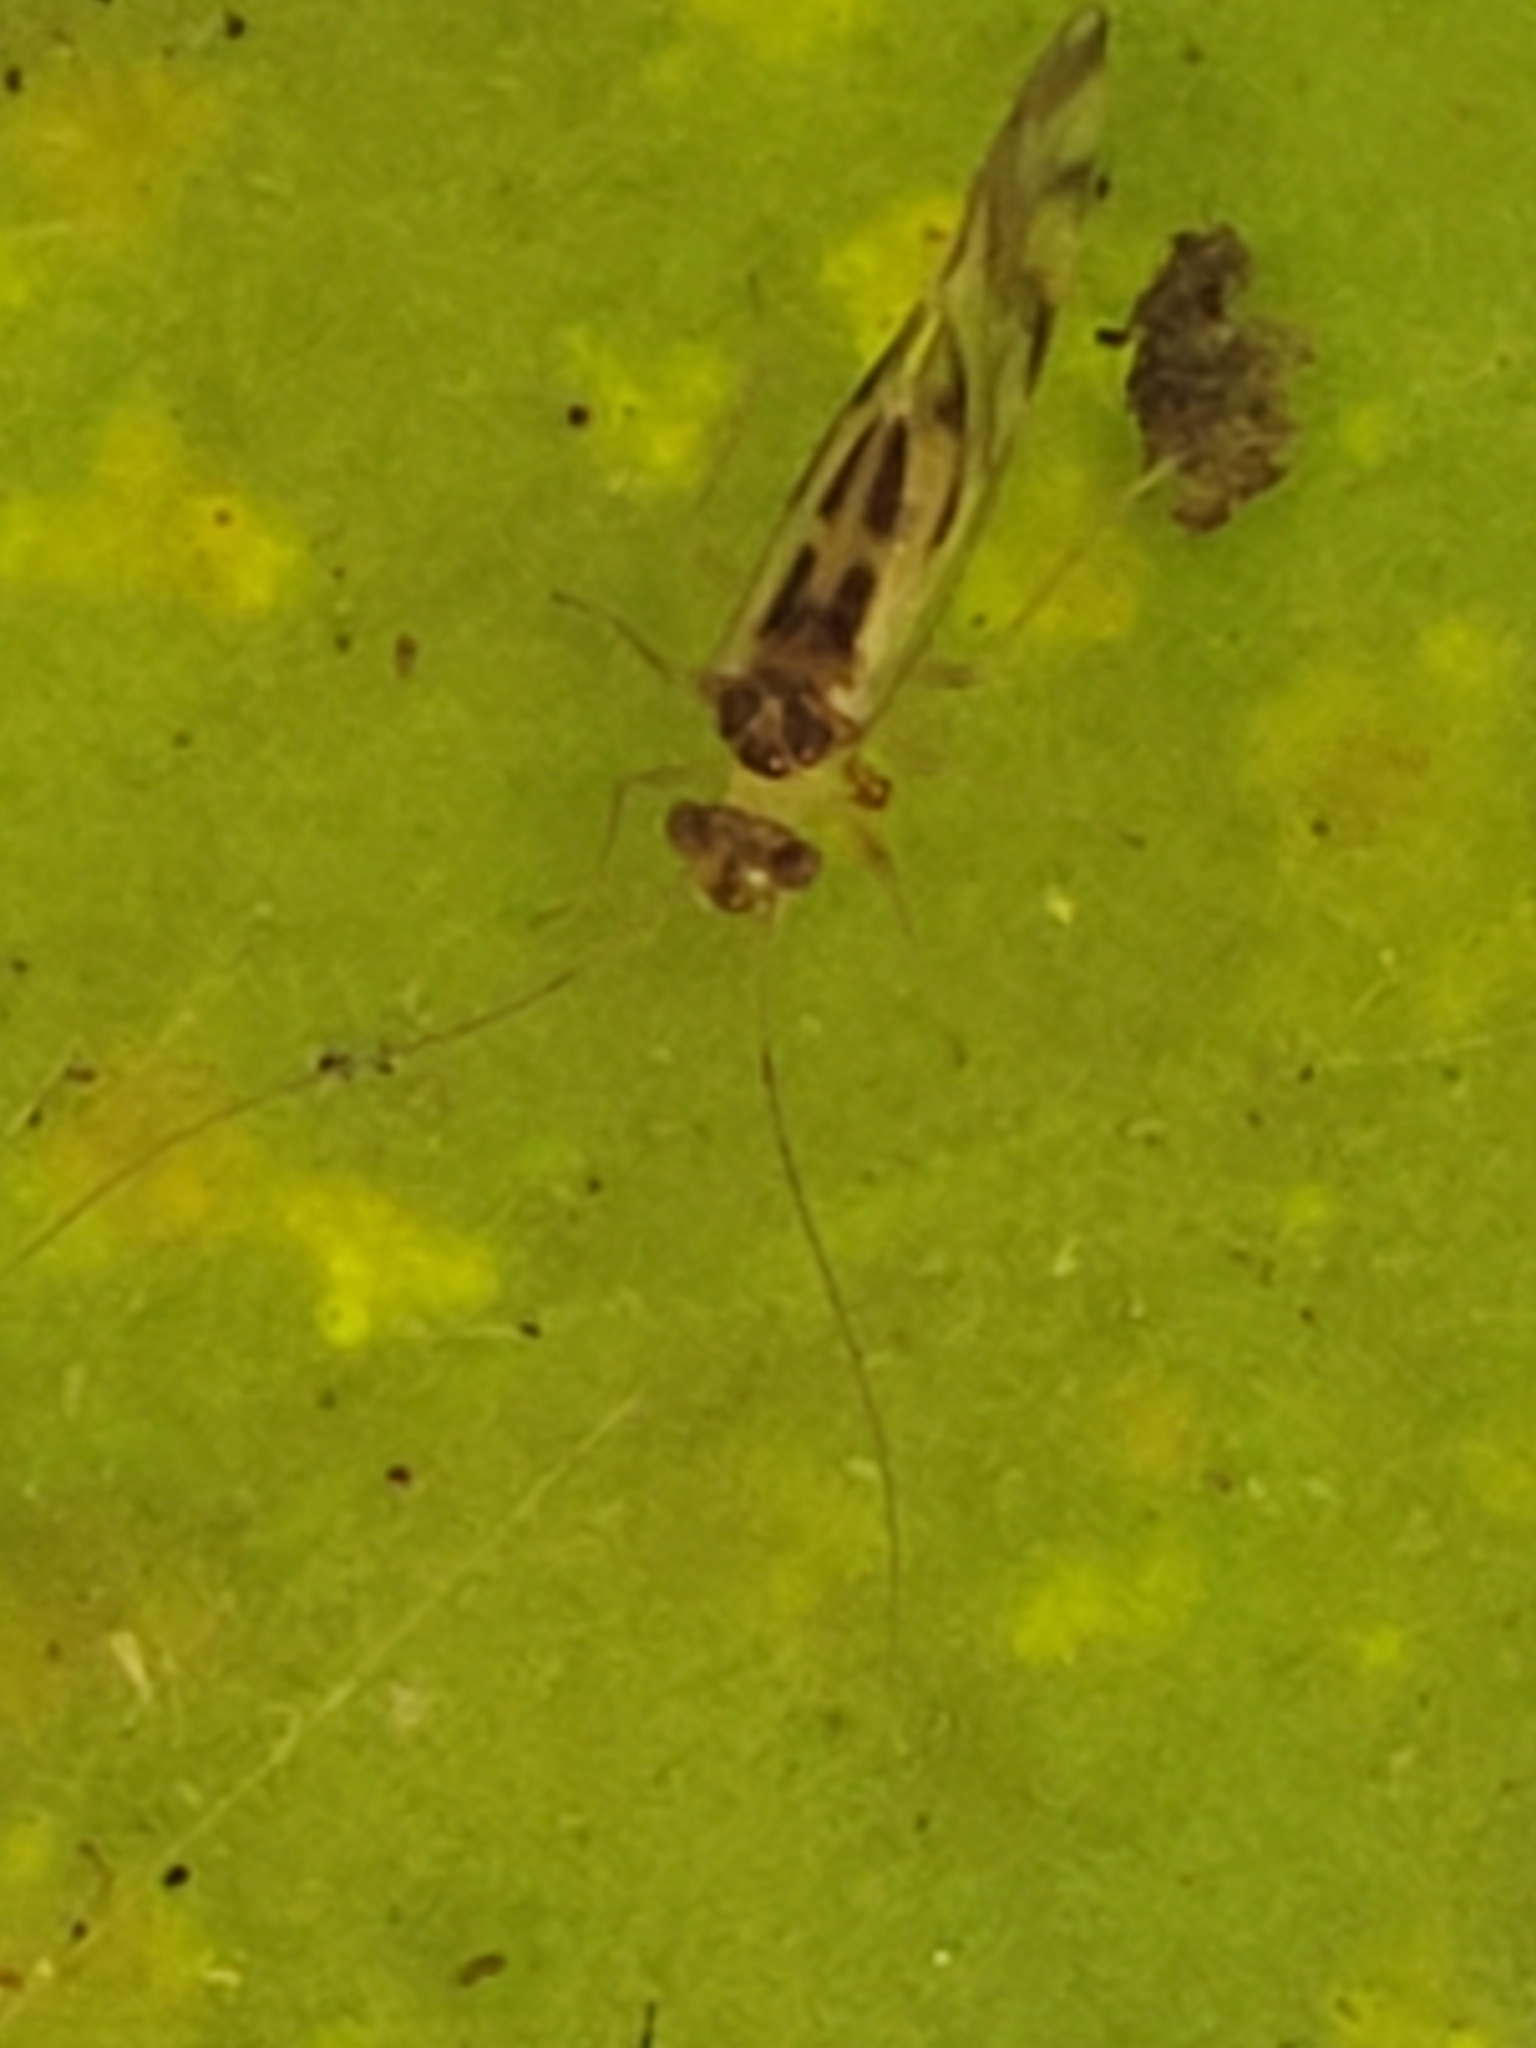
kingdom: Animalia
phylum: Arthropoda
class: Insecta
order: Psocodea
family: Stenopsocidae
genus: Graphopsocus
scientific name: Graphopsocus cruciatus
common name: Lizard bark louse
